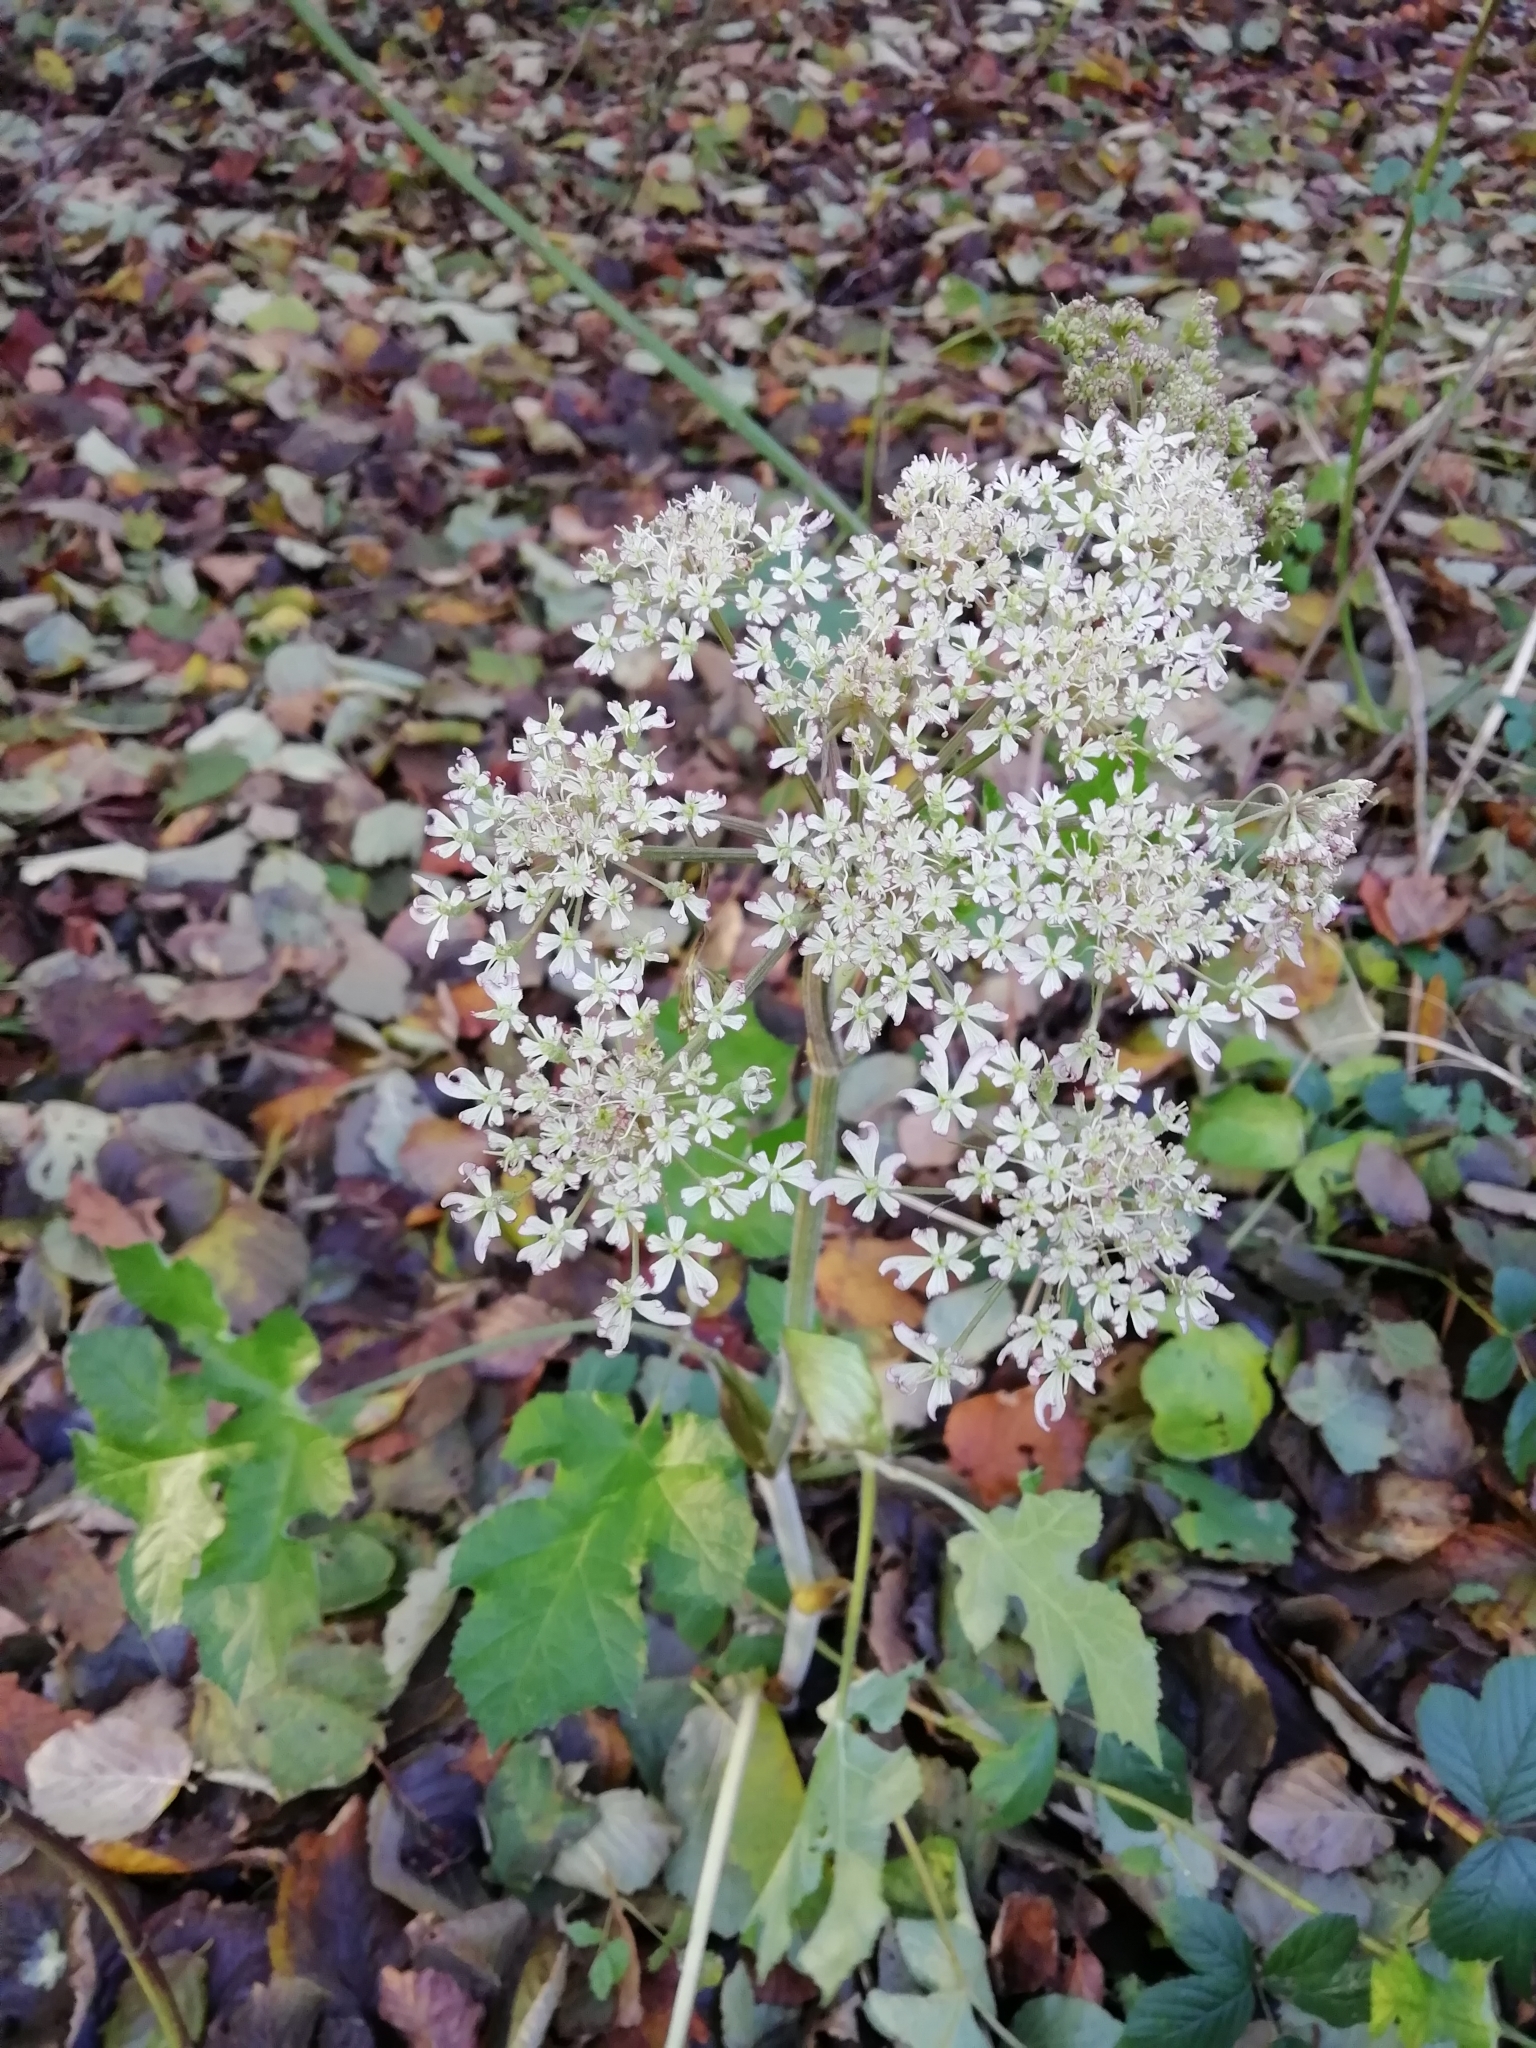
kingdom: Plantae
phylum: Tracheophyta
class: Magnoliopsida
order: Apiales
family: Apiaceae
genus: Heracleum
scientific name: Heracleum sphondylium
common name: Hogweed
